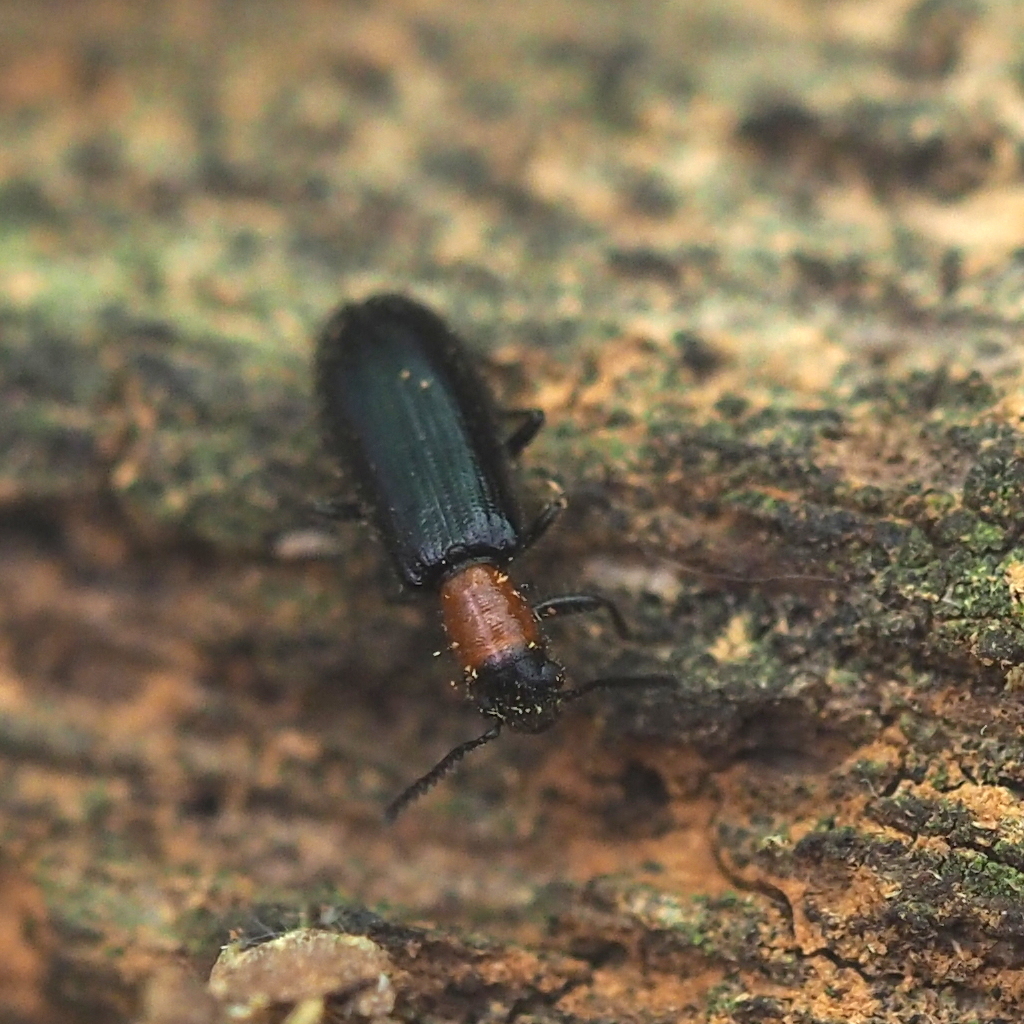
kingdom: Animalia
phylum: Arthropoda
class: Insecta
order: Coleoptera
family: Cleridae
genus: Tillus
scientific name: Tillus elongatus
